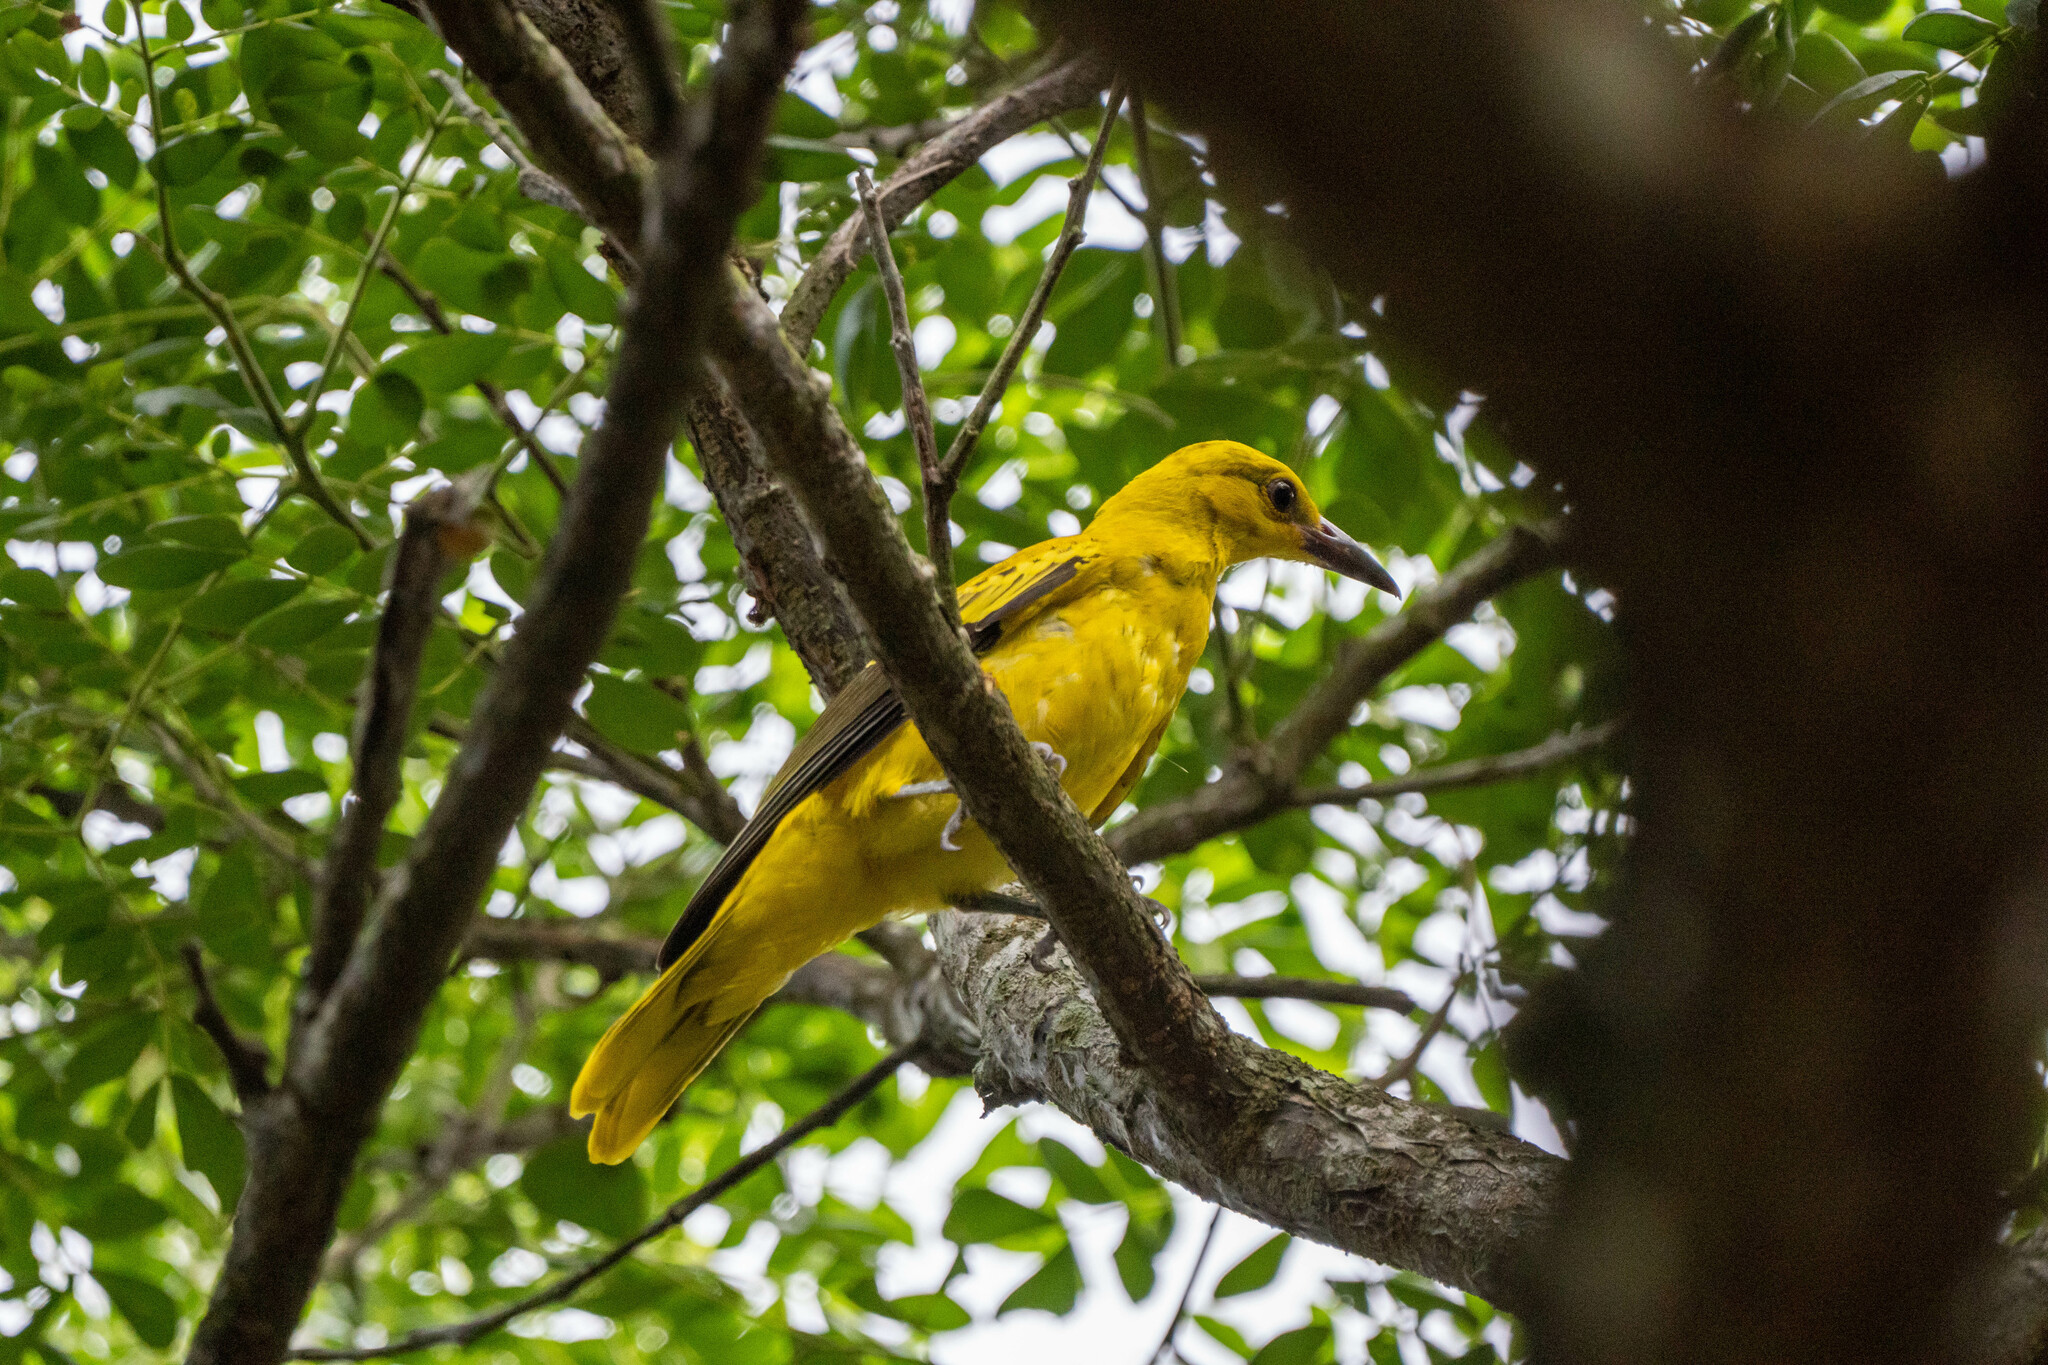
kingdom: Animalia
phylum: Chordata
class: Aves
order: Passeriformes
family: Oriolidae
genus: Oriolus
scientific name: Oriolus chinensis
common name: Black-naped oriole
